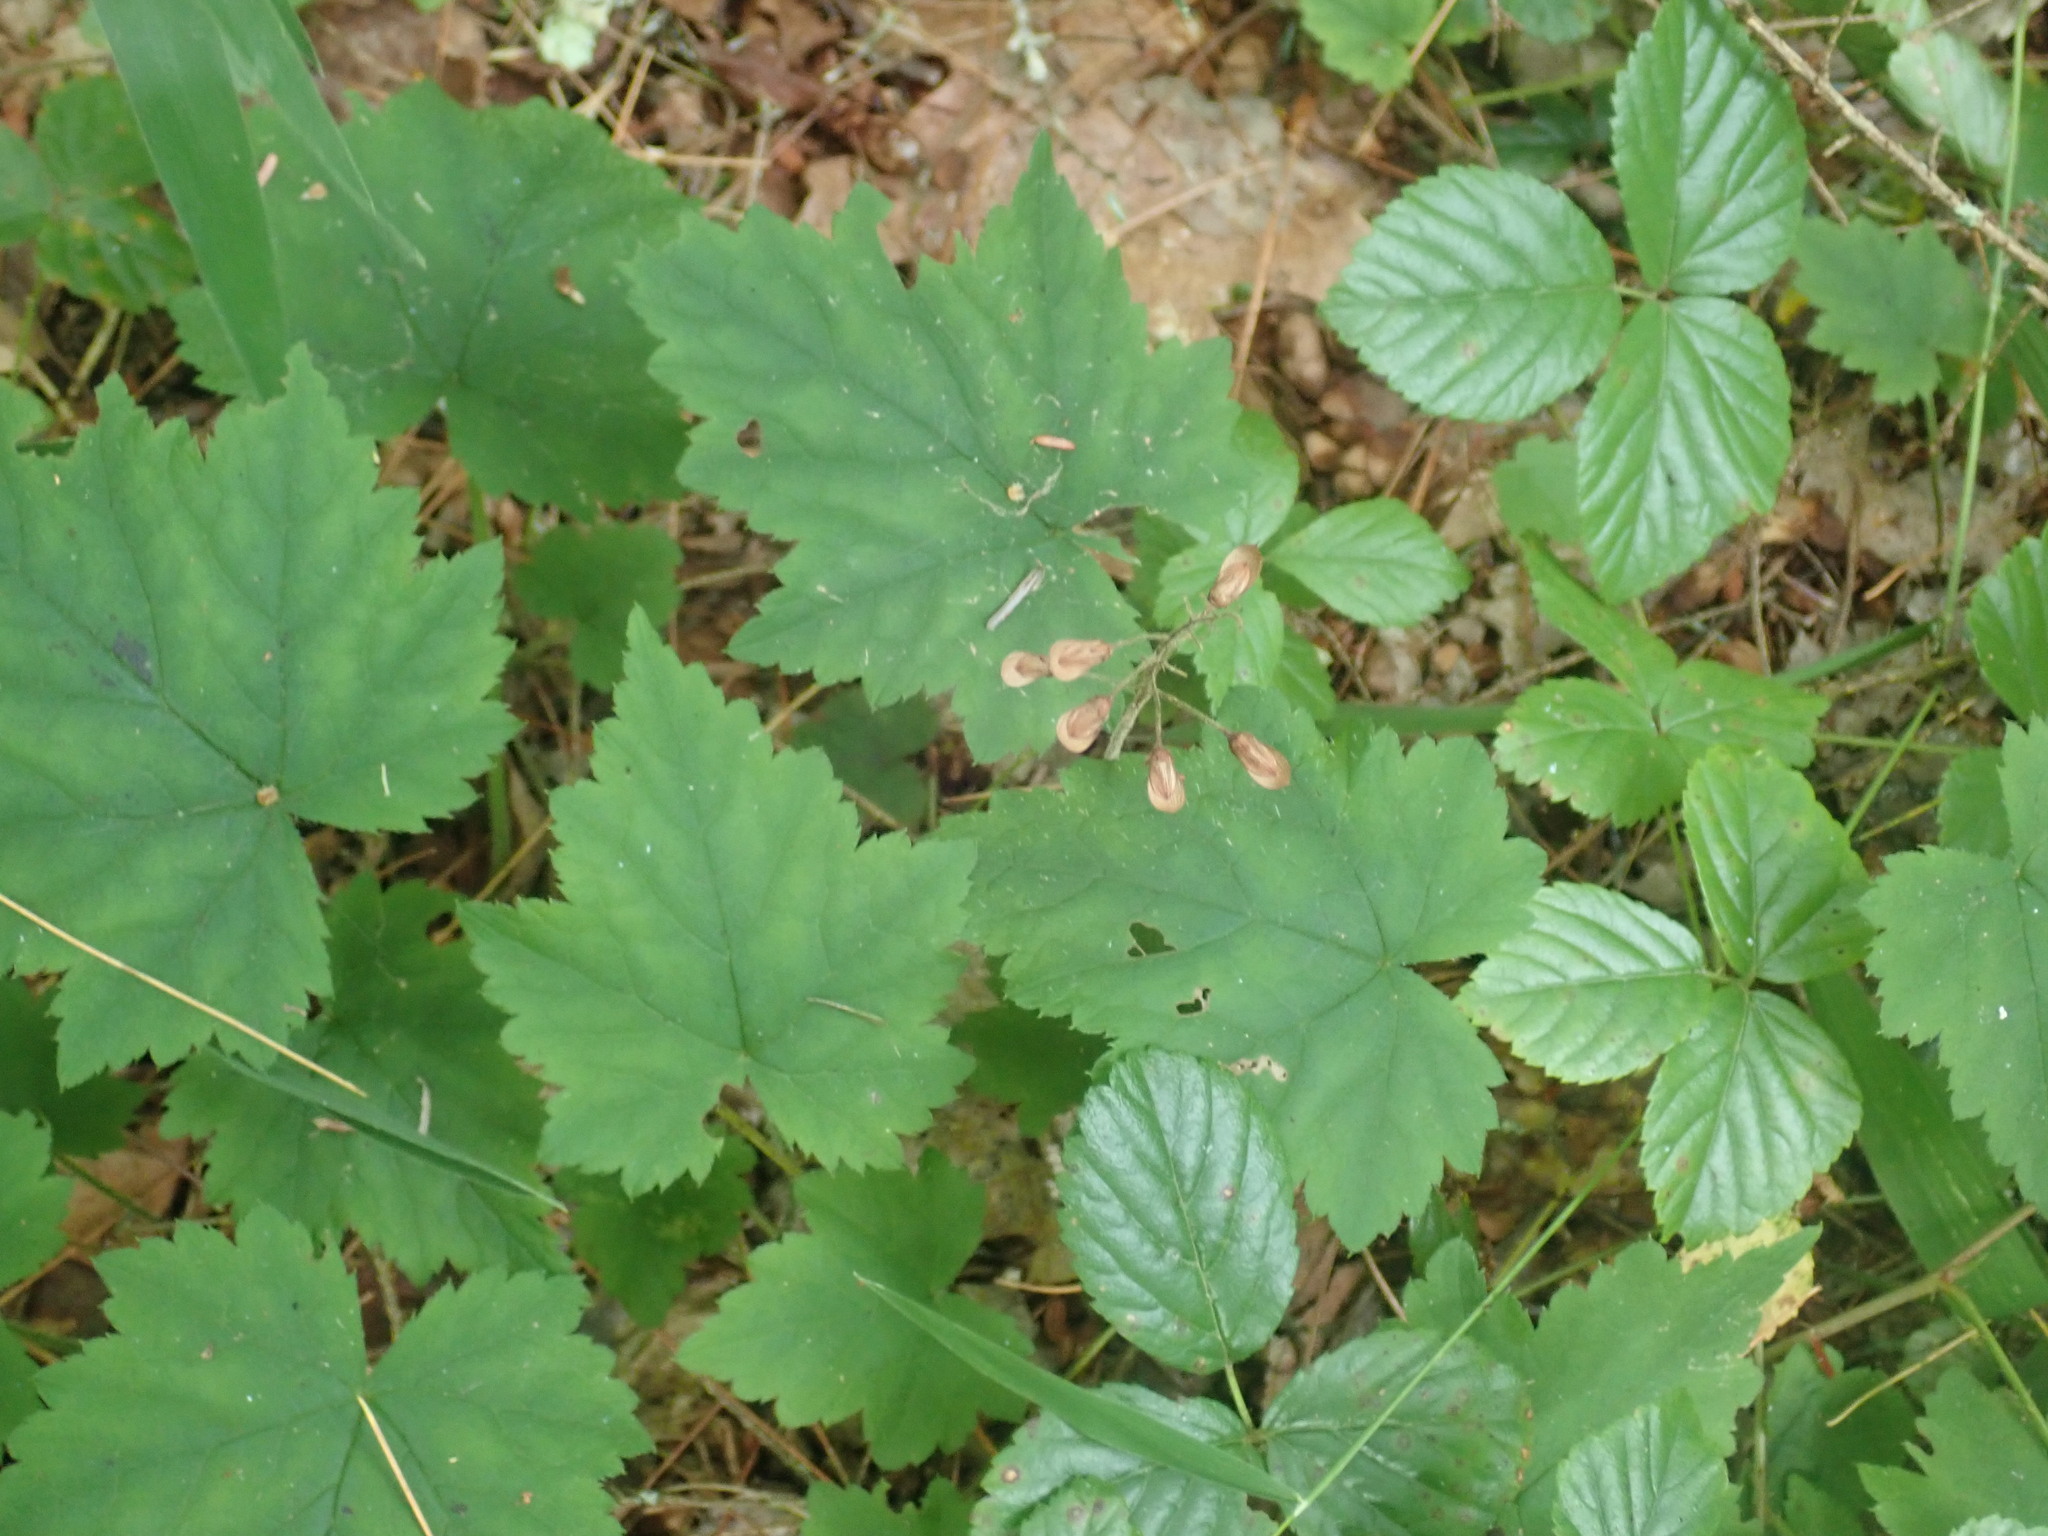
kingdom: Plantae
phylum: Tracheophyta
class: Magnoliopsida
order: Saxifragales
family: Saxifragaceae
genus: Tiarella
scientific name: Tiarella stolonifera
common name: Stoloniferous foamflower
